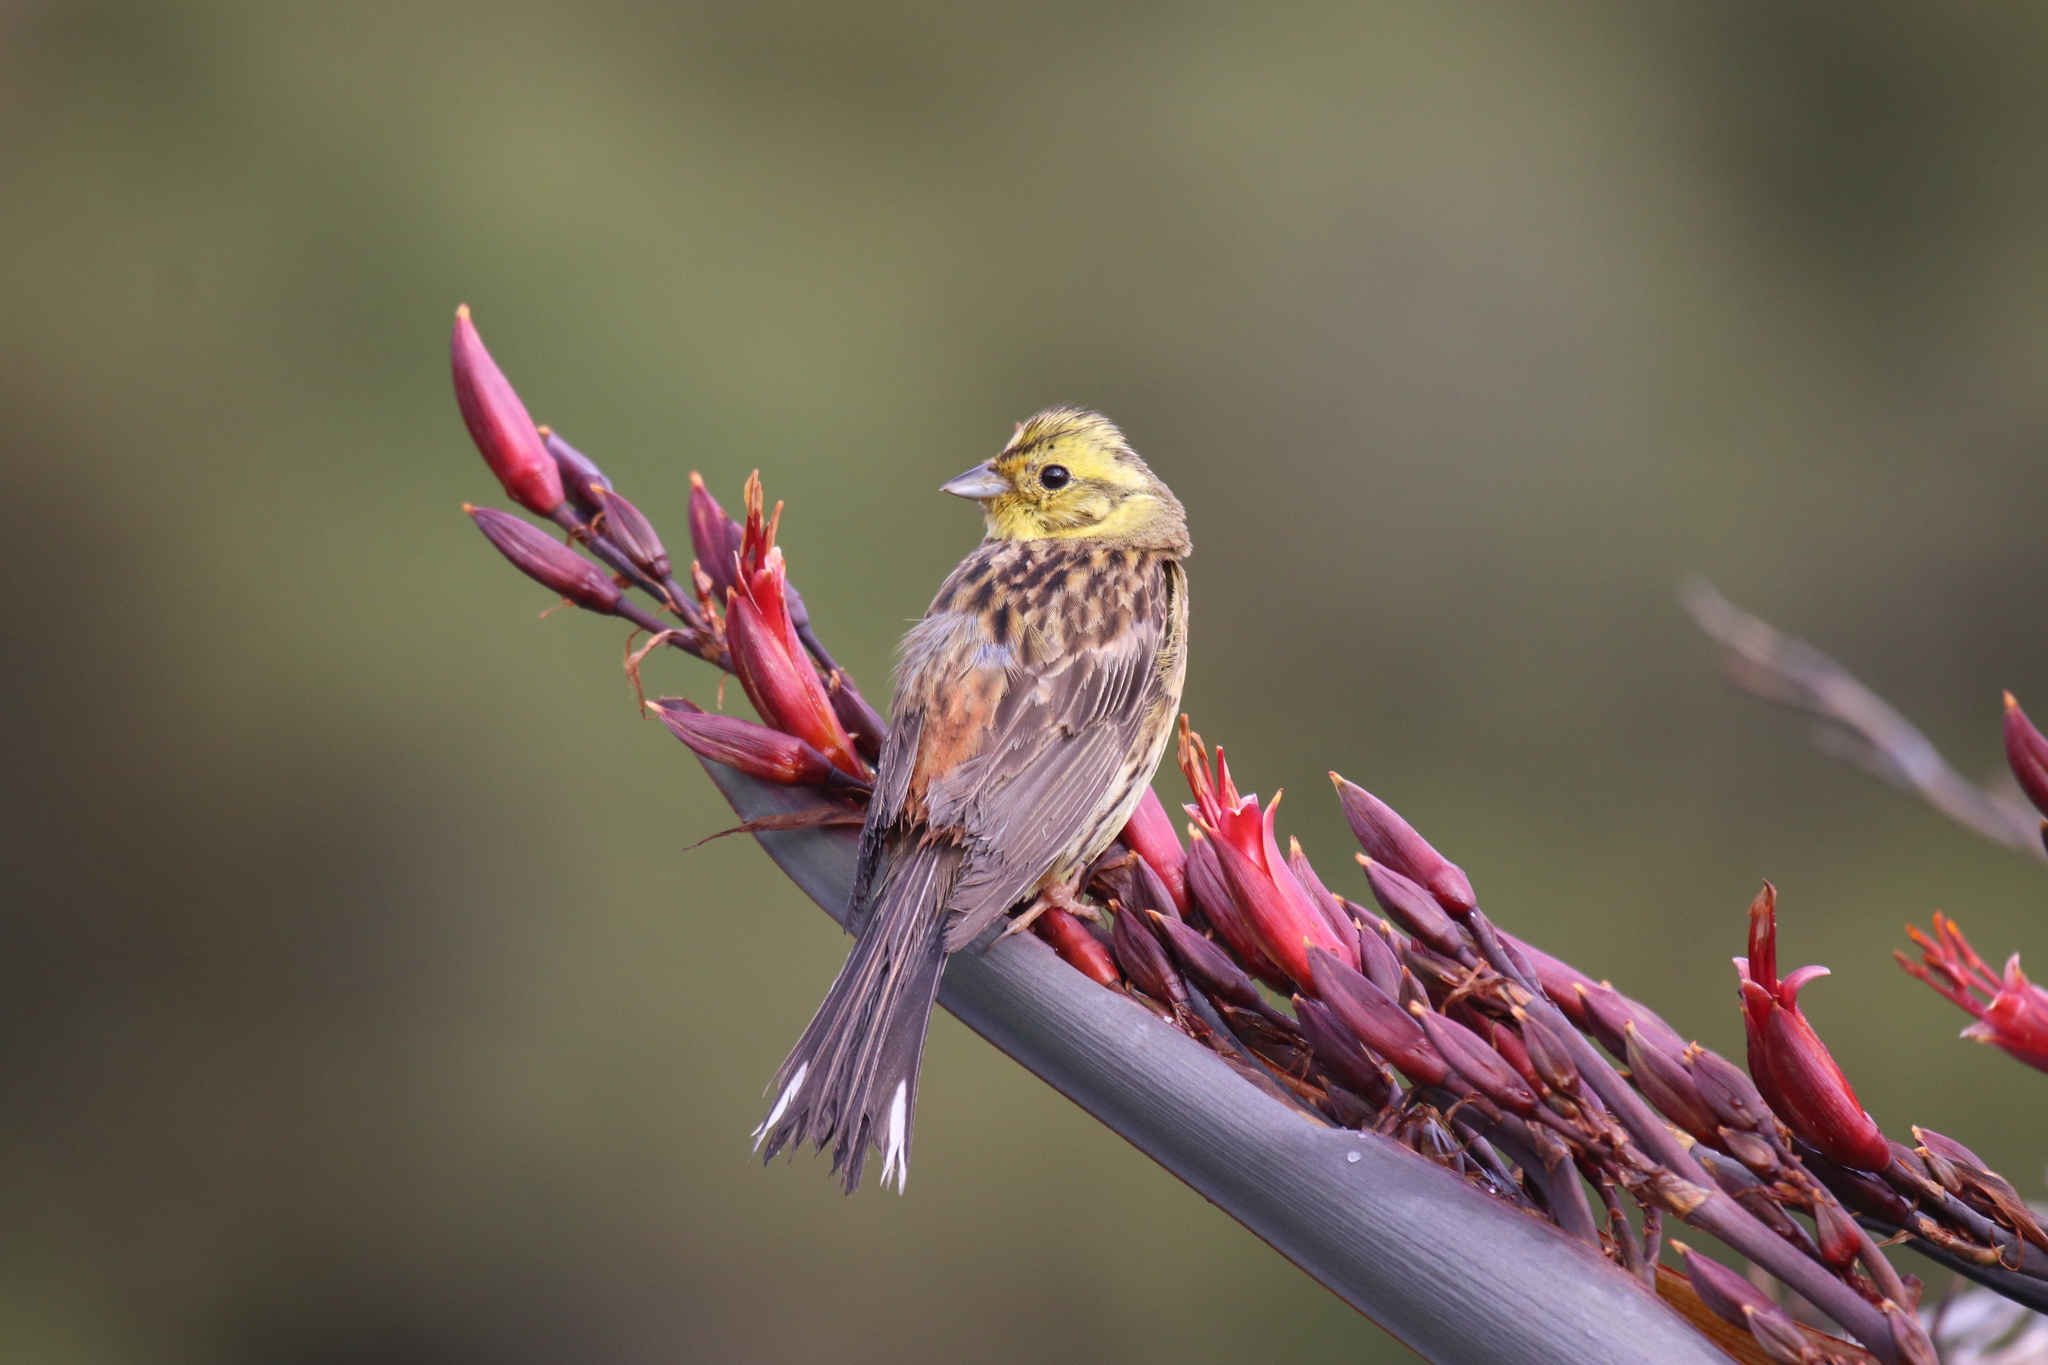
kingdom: Animalia
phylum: Chordata
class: Aves
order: Passeriformes
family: Emberizidae
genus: Emberiza
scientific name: Emberiza citrinella
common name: Yellowhammer
